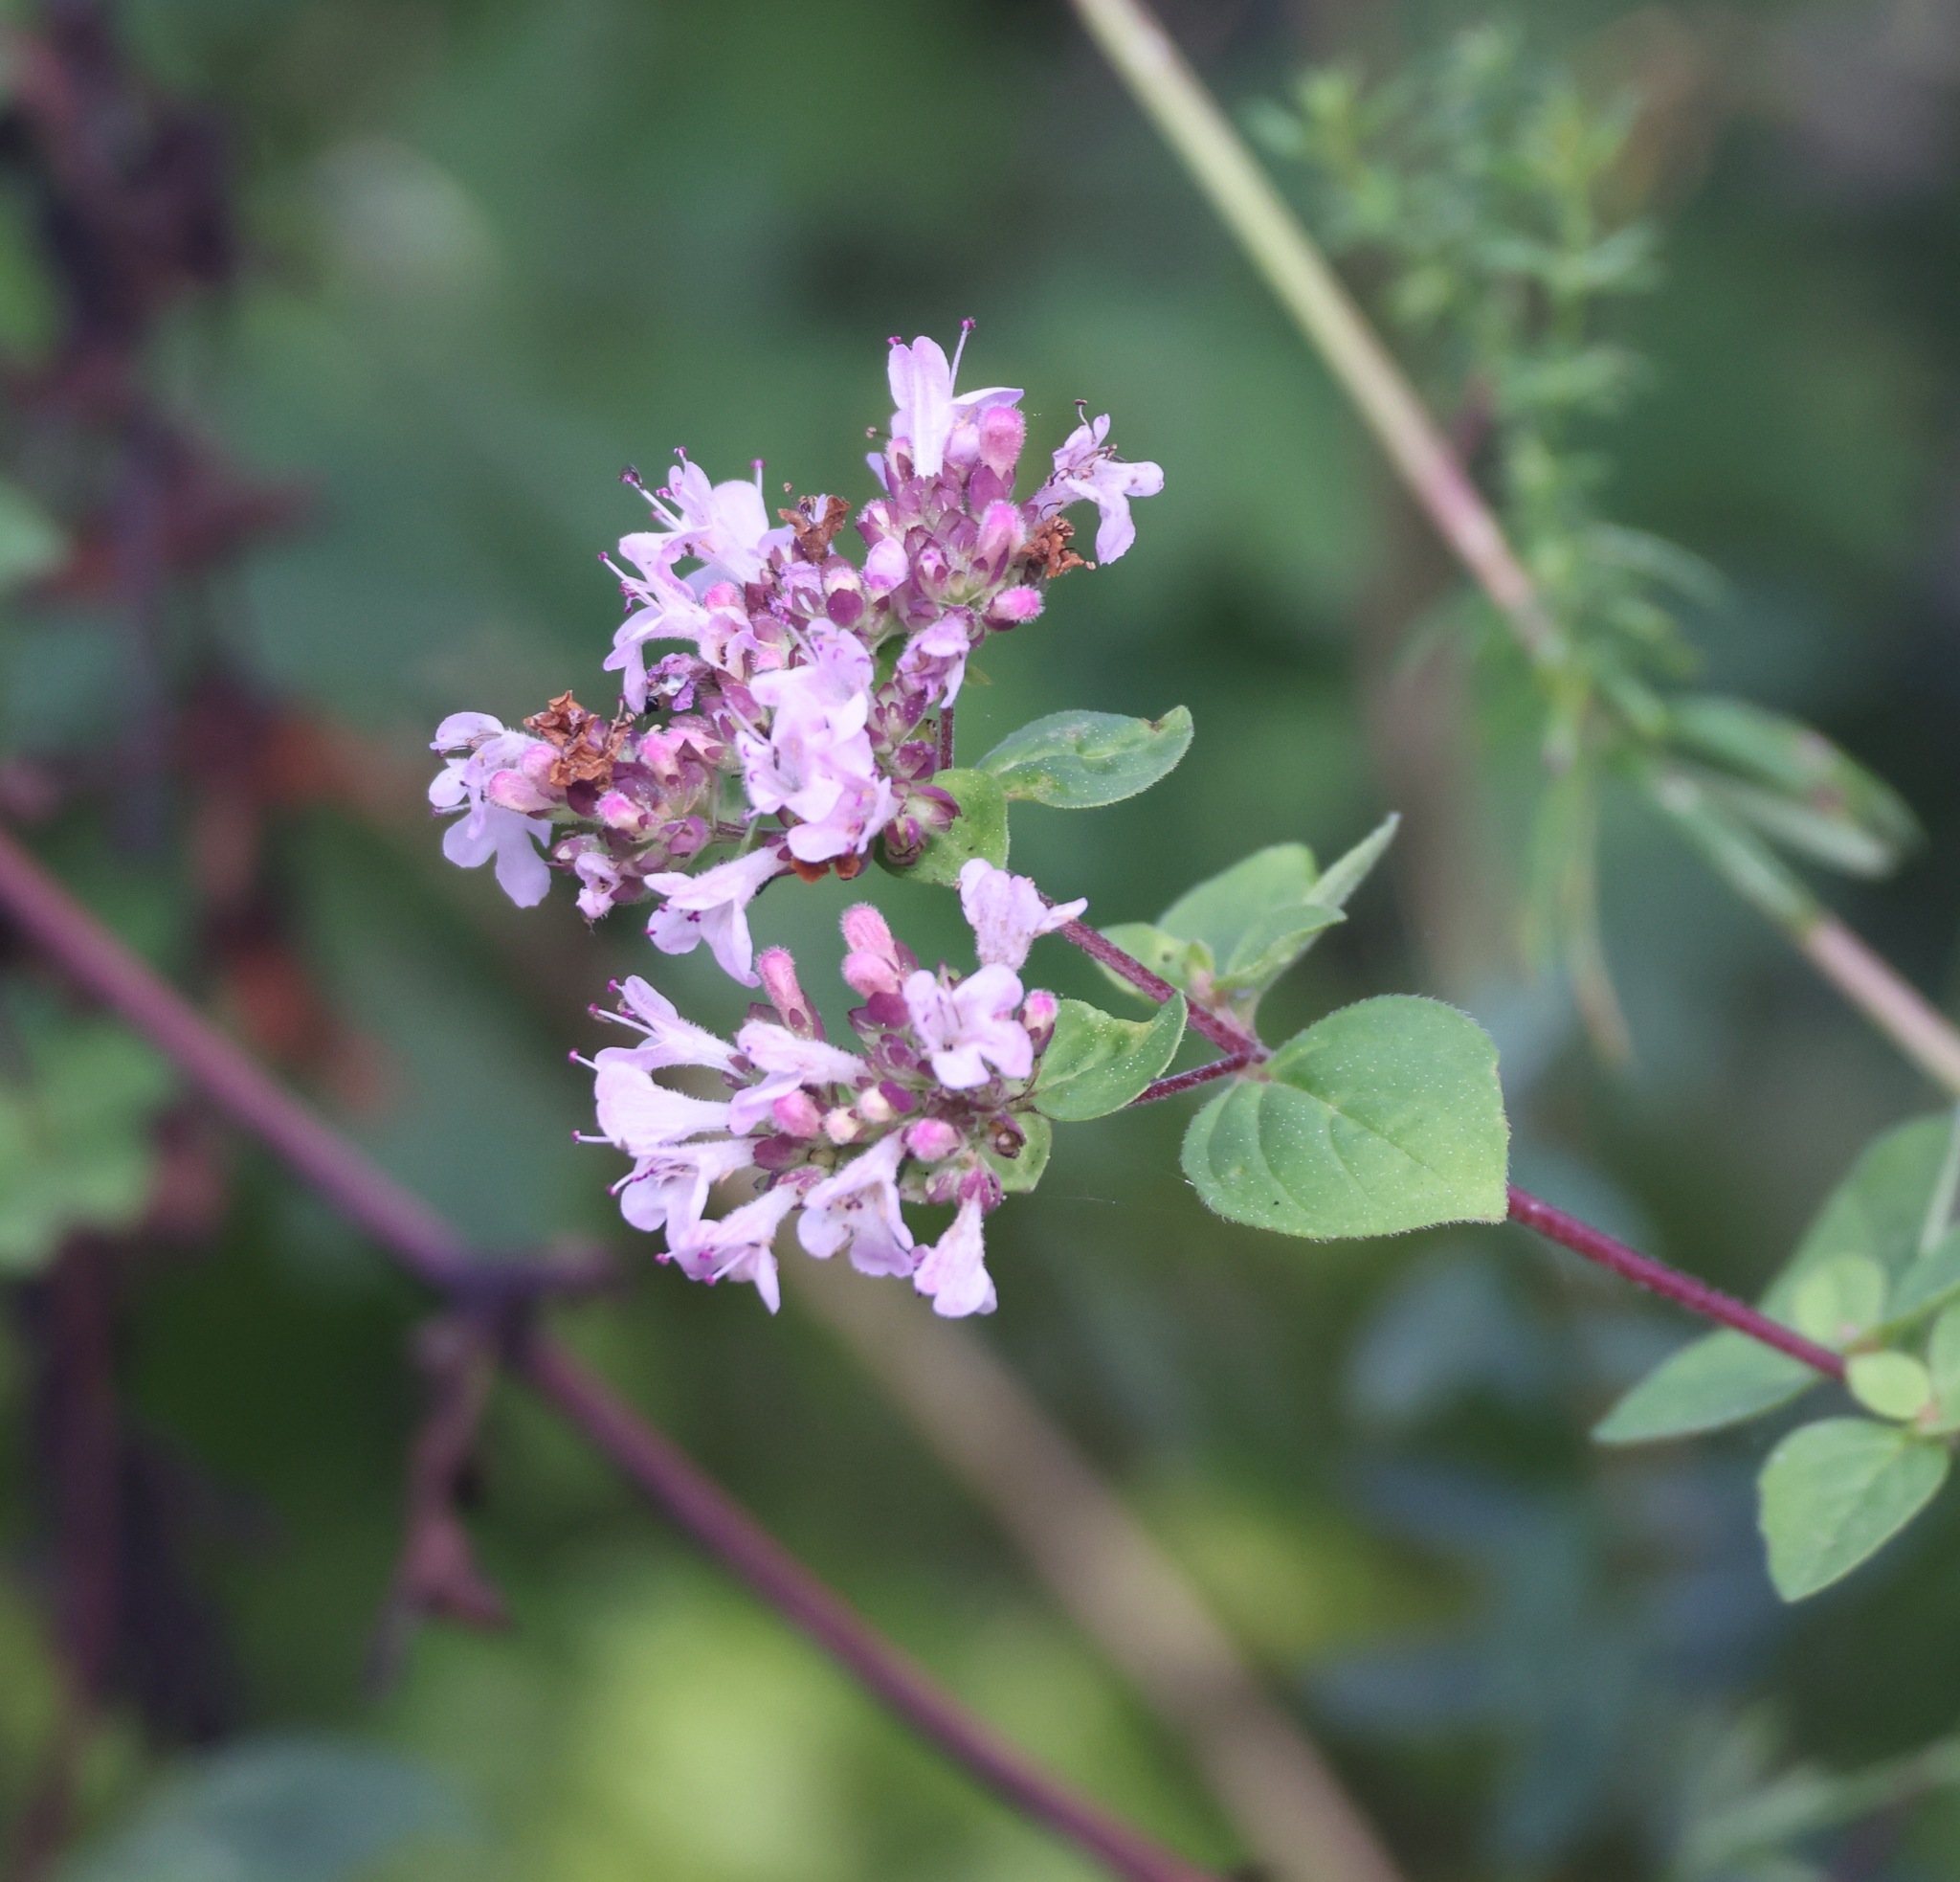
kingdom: Plantae
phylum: Tracheophyta
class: Magnoliopsida
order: Lamiales
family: Lamiaceae
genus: Origanum
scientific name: Origanum vulgare
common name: Wild marjoram
